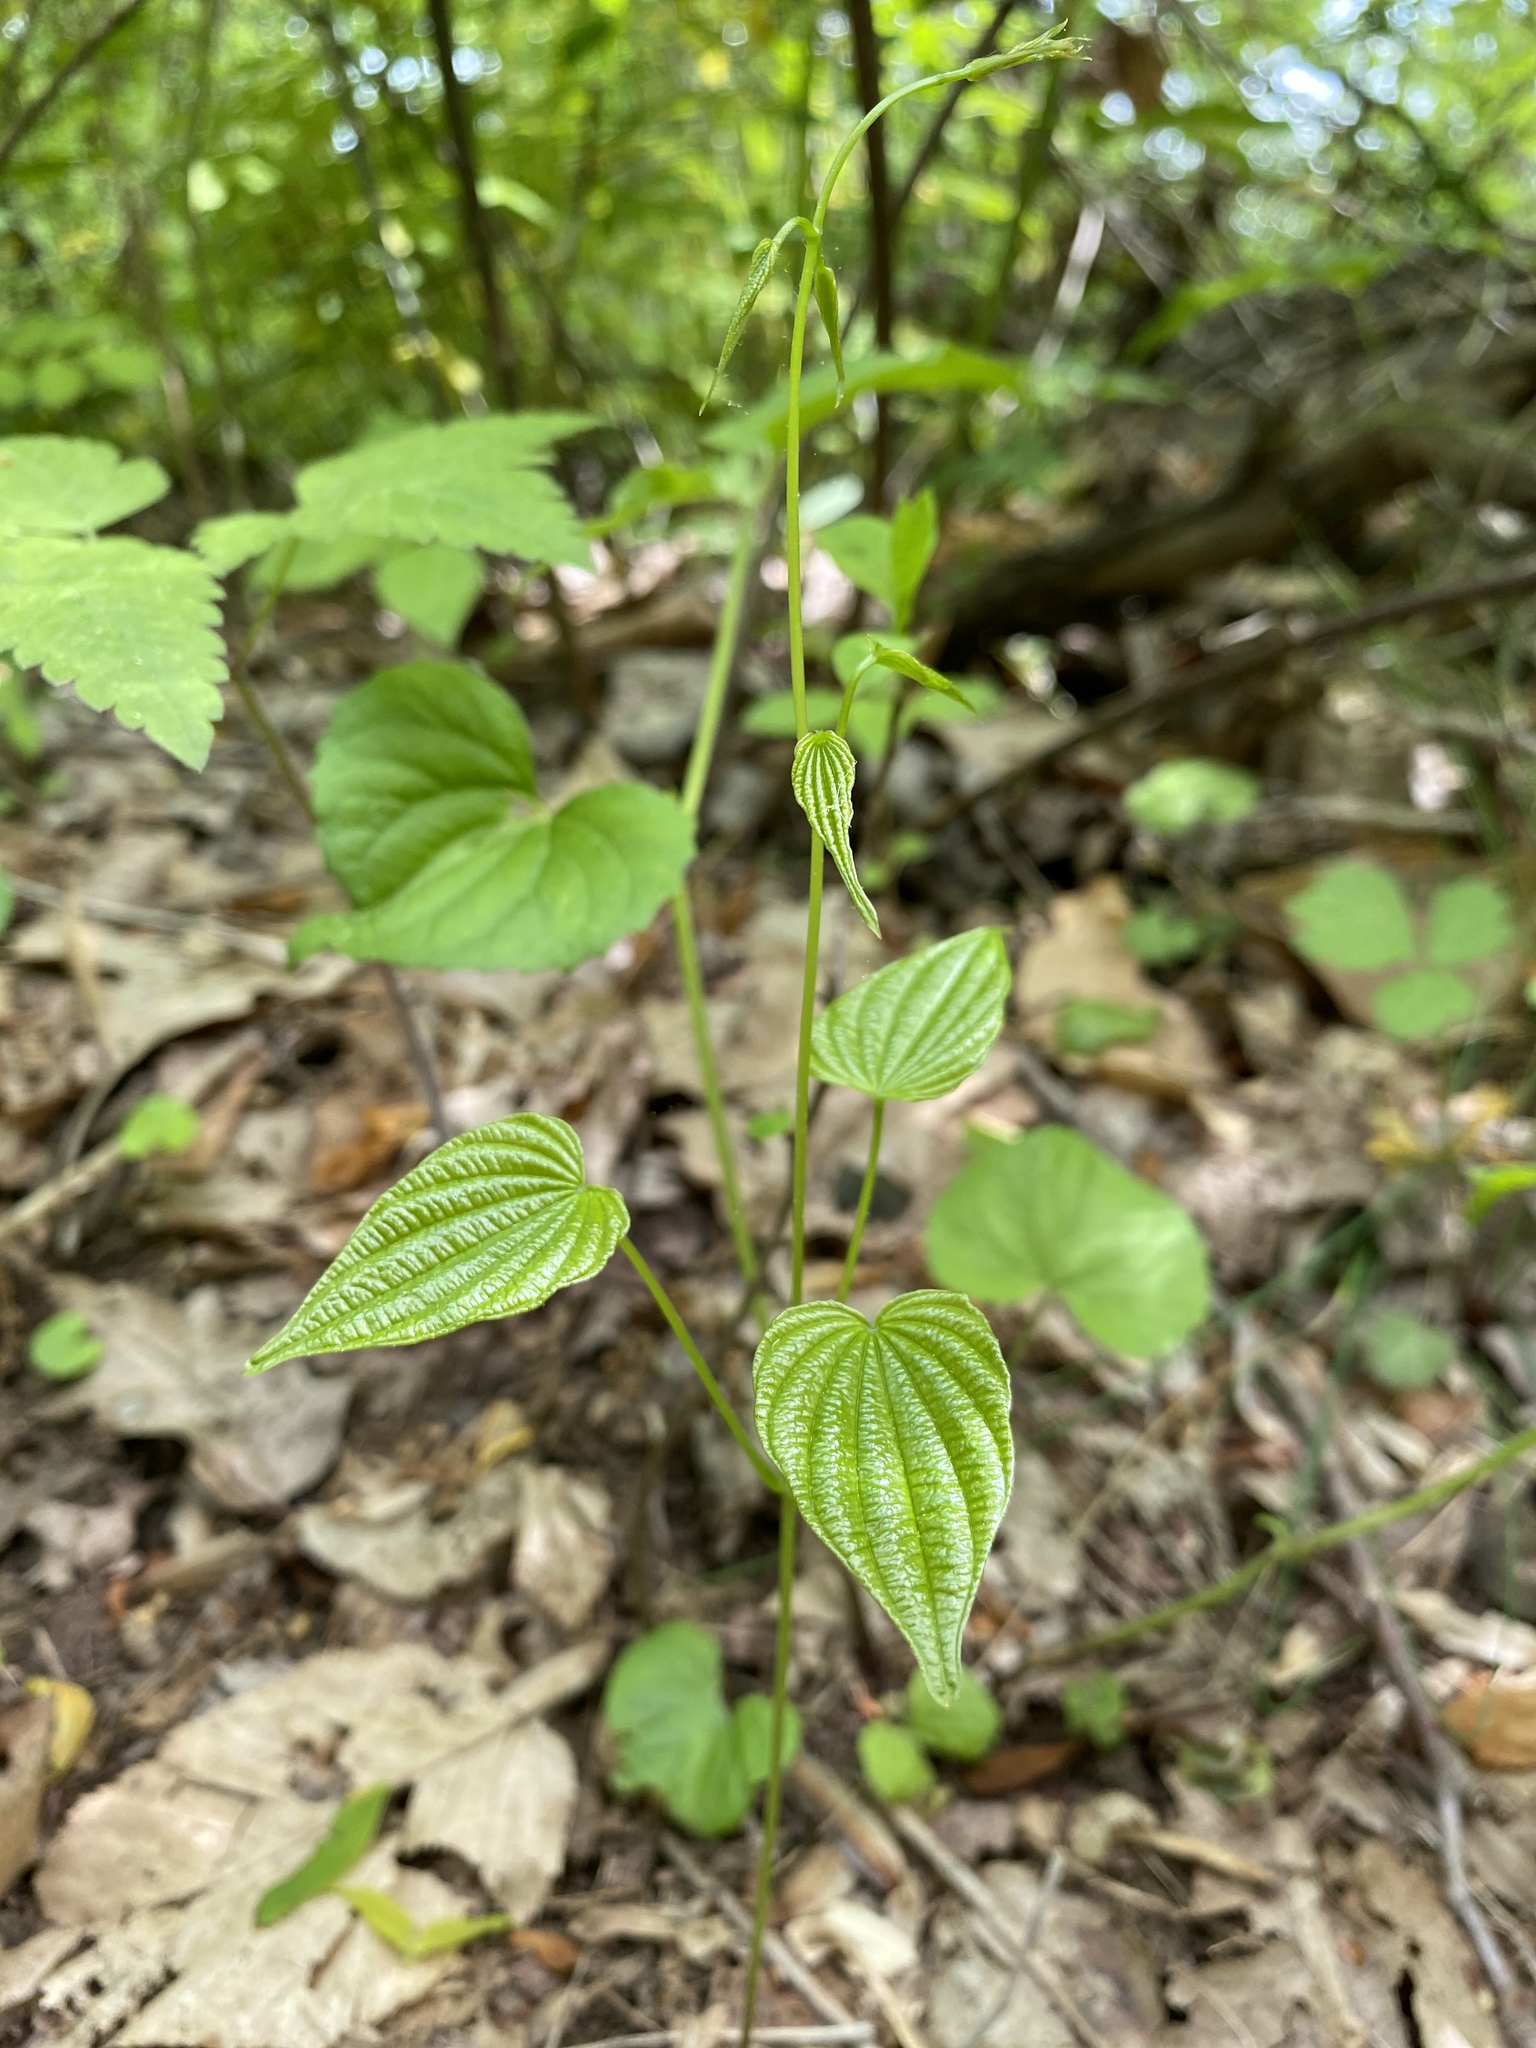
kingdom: Plantae
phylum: Tracheophyta
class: Liliopsida
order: Dioscoreales
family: Dioscoreaceae
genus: Dioscorea
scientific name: Dioscorea villosa
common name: Wild yam
